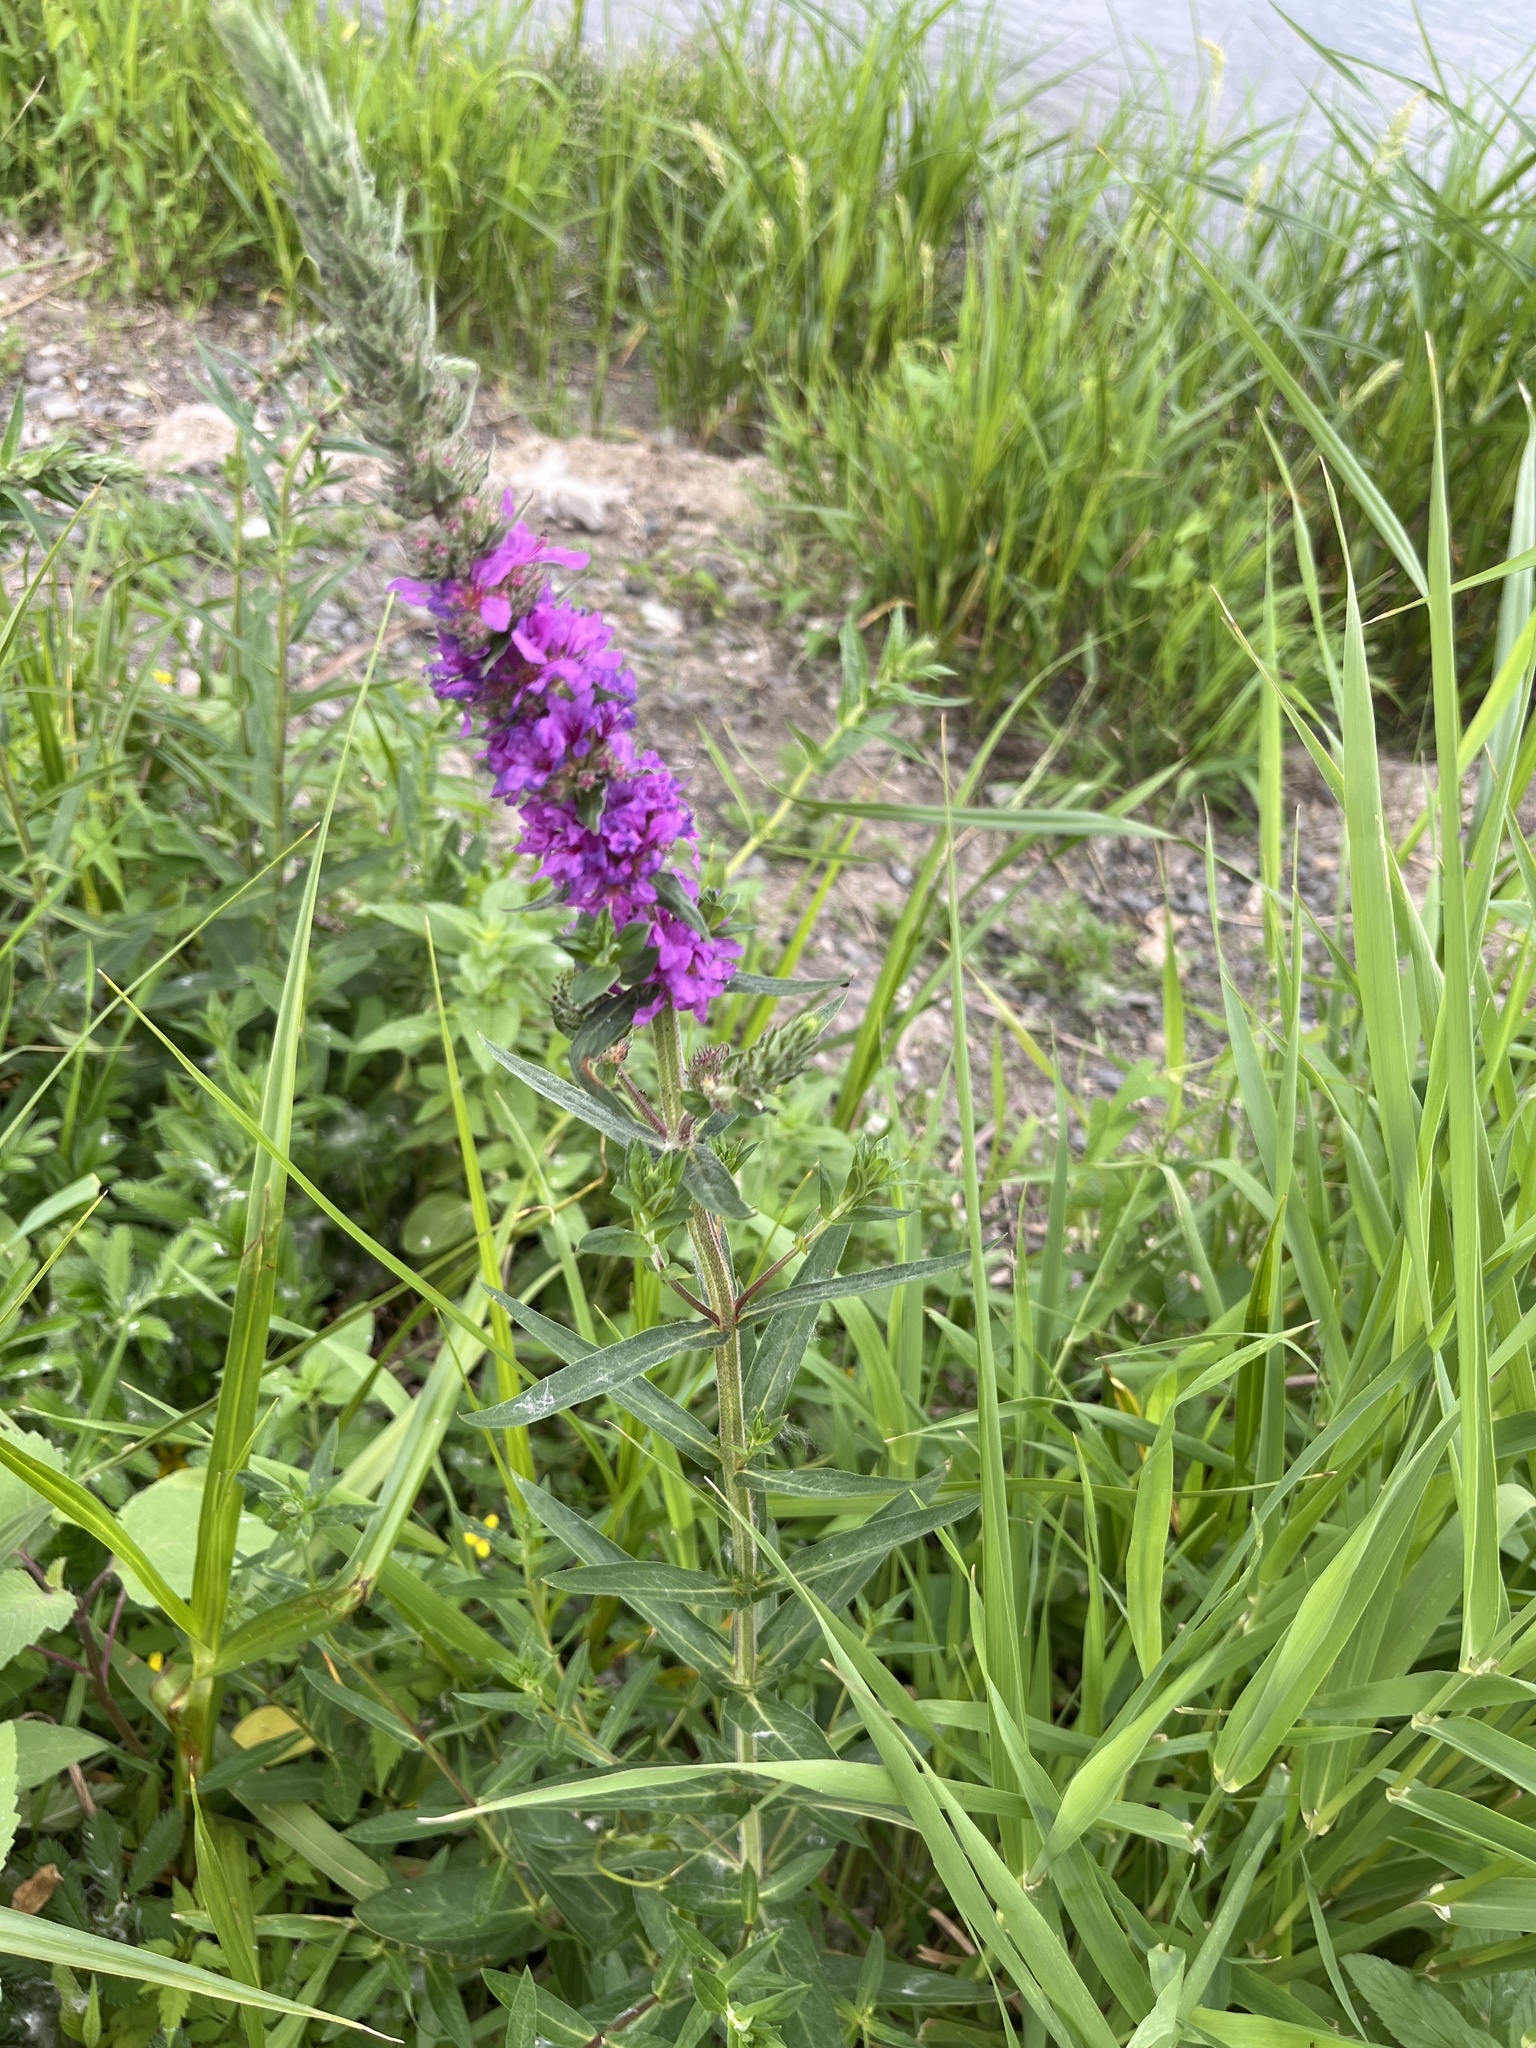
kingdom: Plantae
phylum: Tracheophyta
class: Magnoliopsida
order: Myrtales
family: Lythraceae
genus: Lythrum
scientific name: Lythrum salicaria
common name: Purple loosestrife
